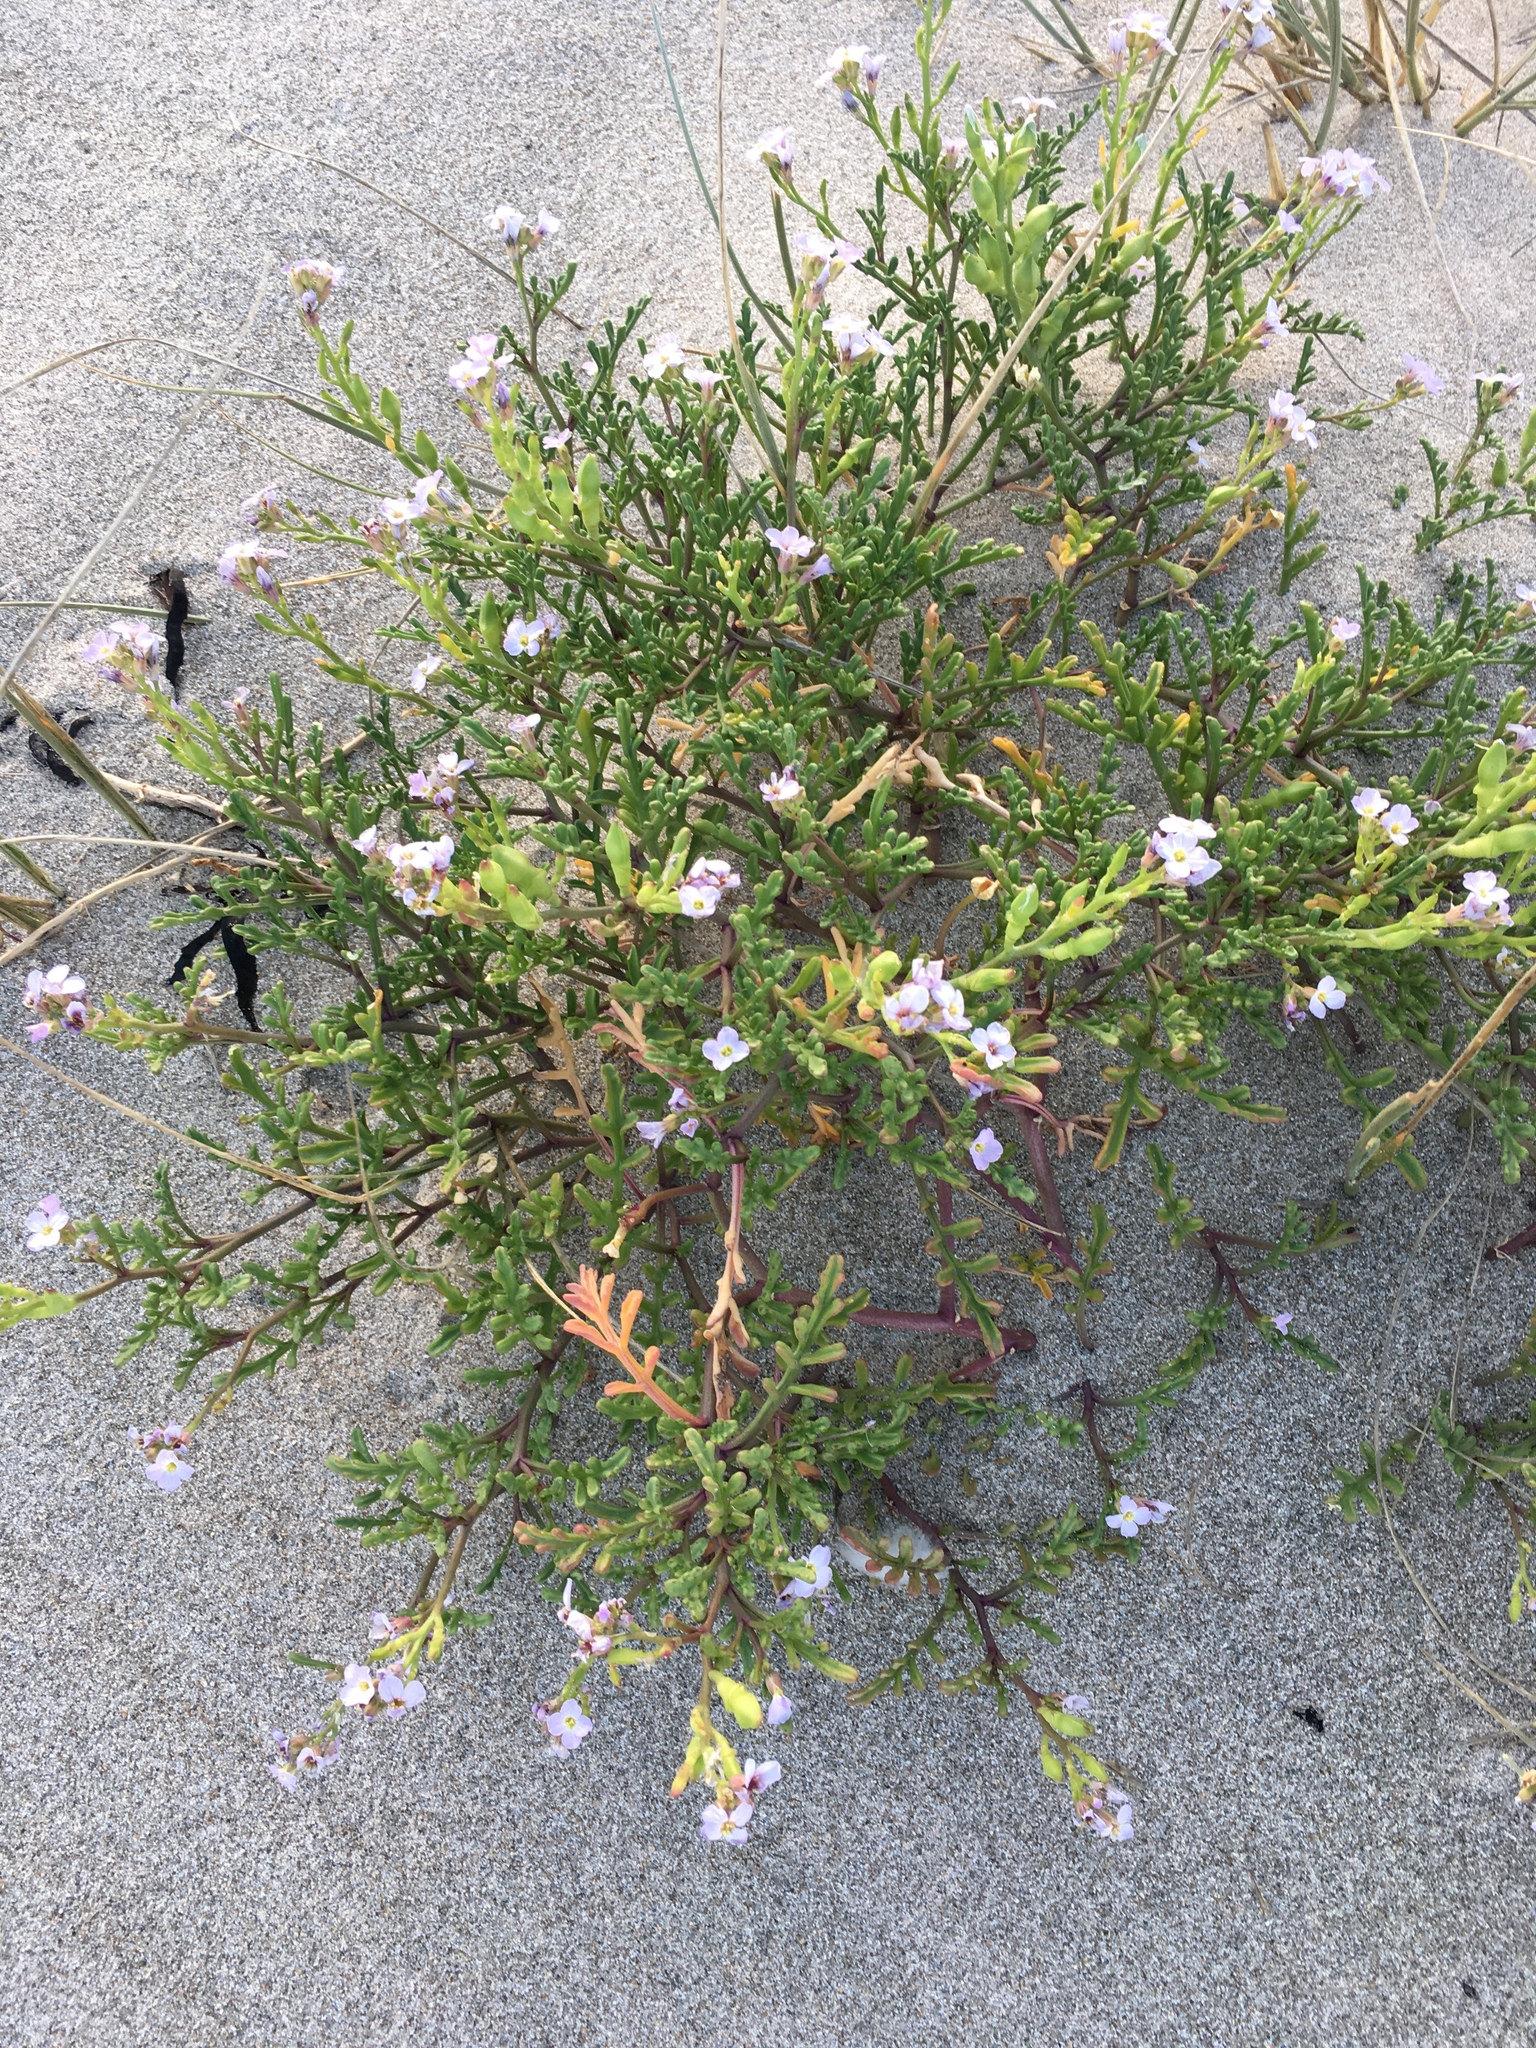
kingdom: Plantae
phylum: Tracheophyta
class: Magnoliopsida
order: Brassicales
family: Brassicaceae
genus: Cakile
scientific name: Cakile maritima
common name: Sea rocket
